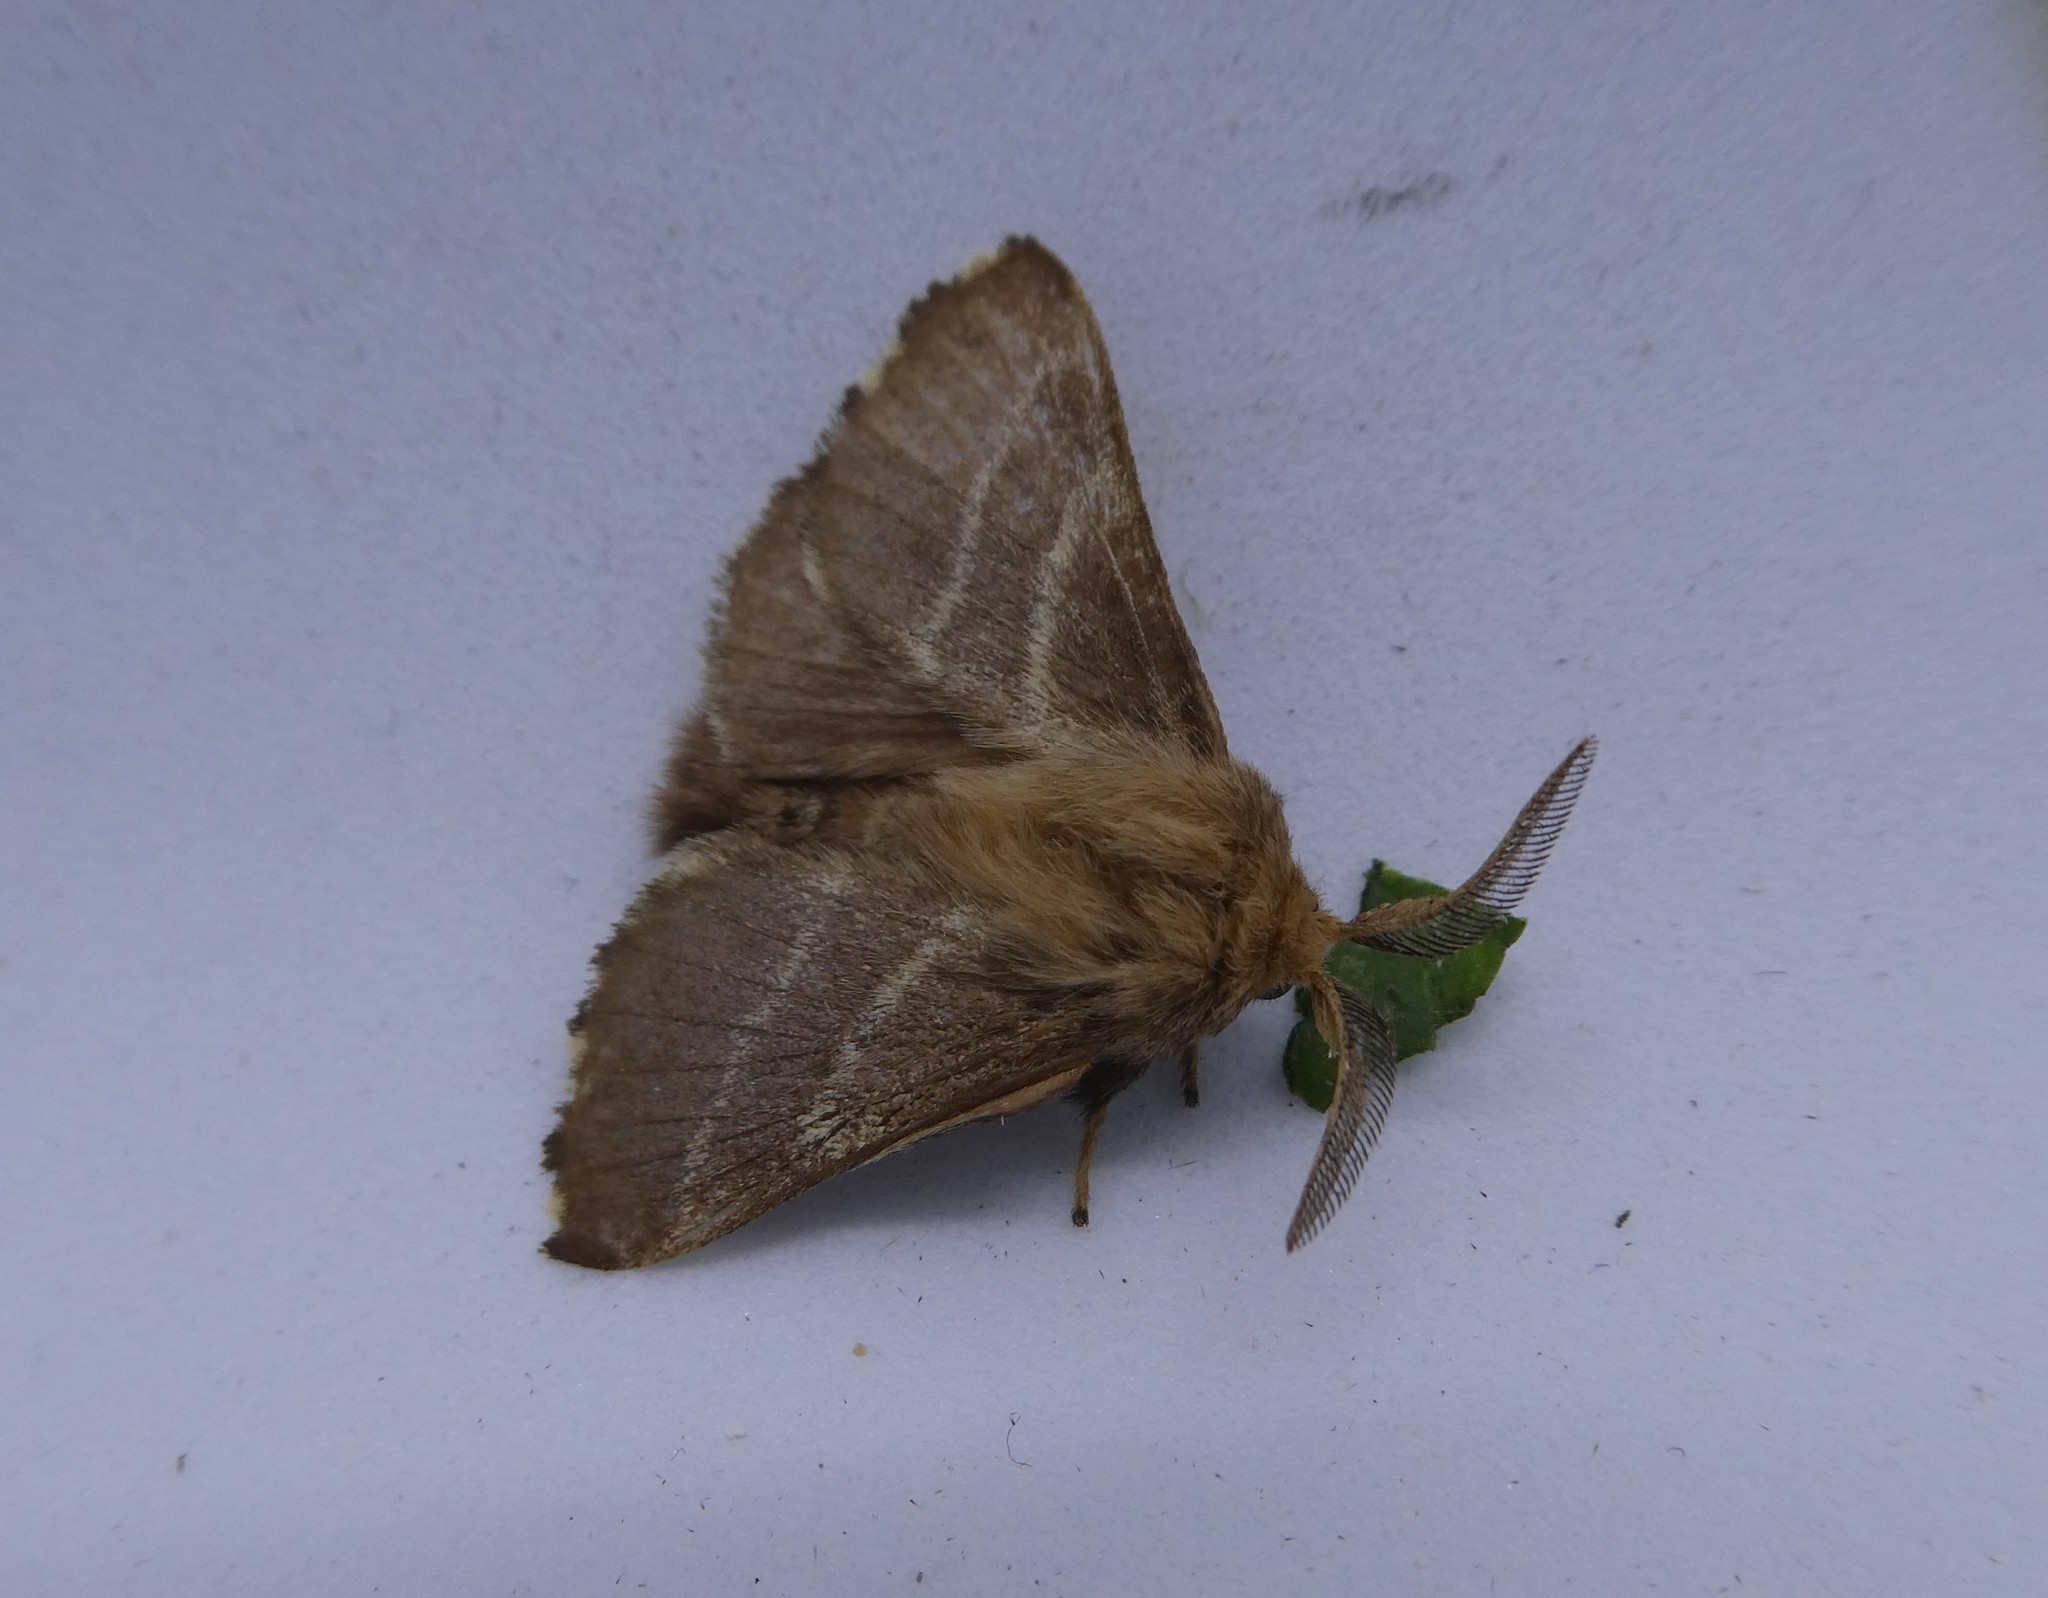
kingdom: Animalia
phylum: Arthropoda
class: Insecta
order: Lepidoptera
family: Lasiocampidae
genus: Malacosoma
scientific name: Malacosoma americana
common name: Eastern tent caterpillar moth
